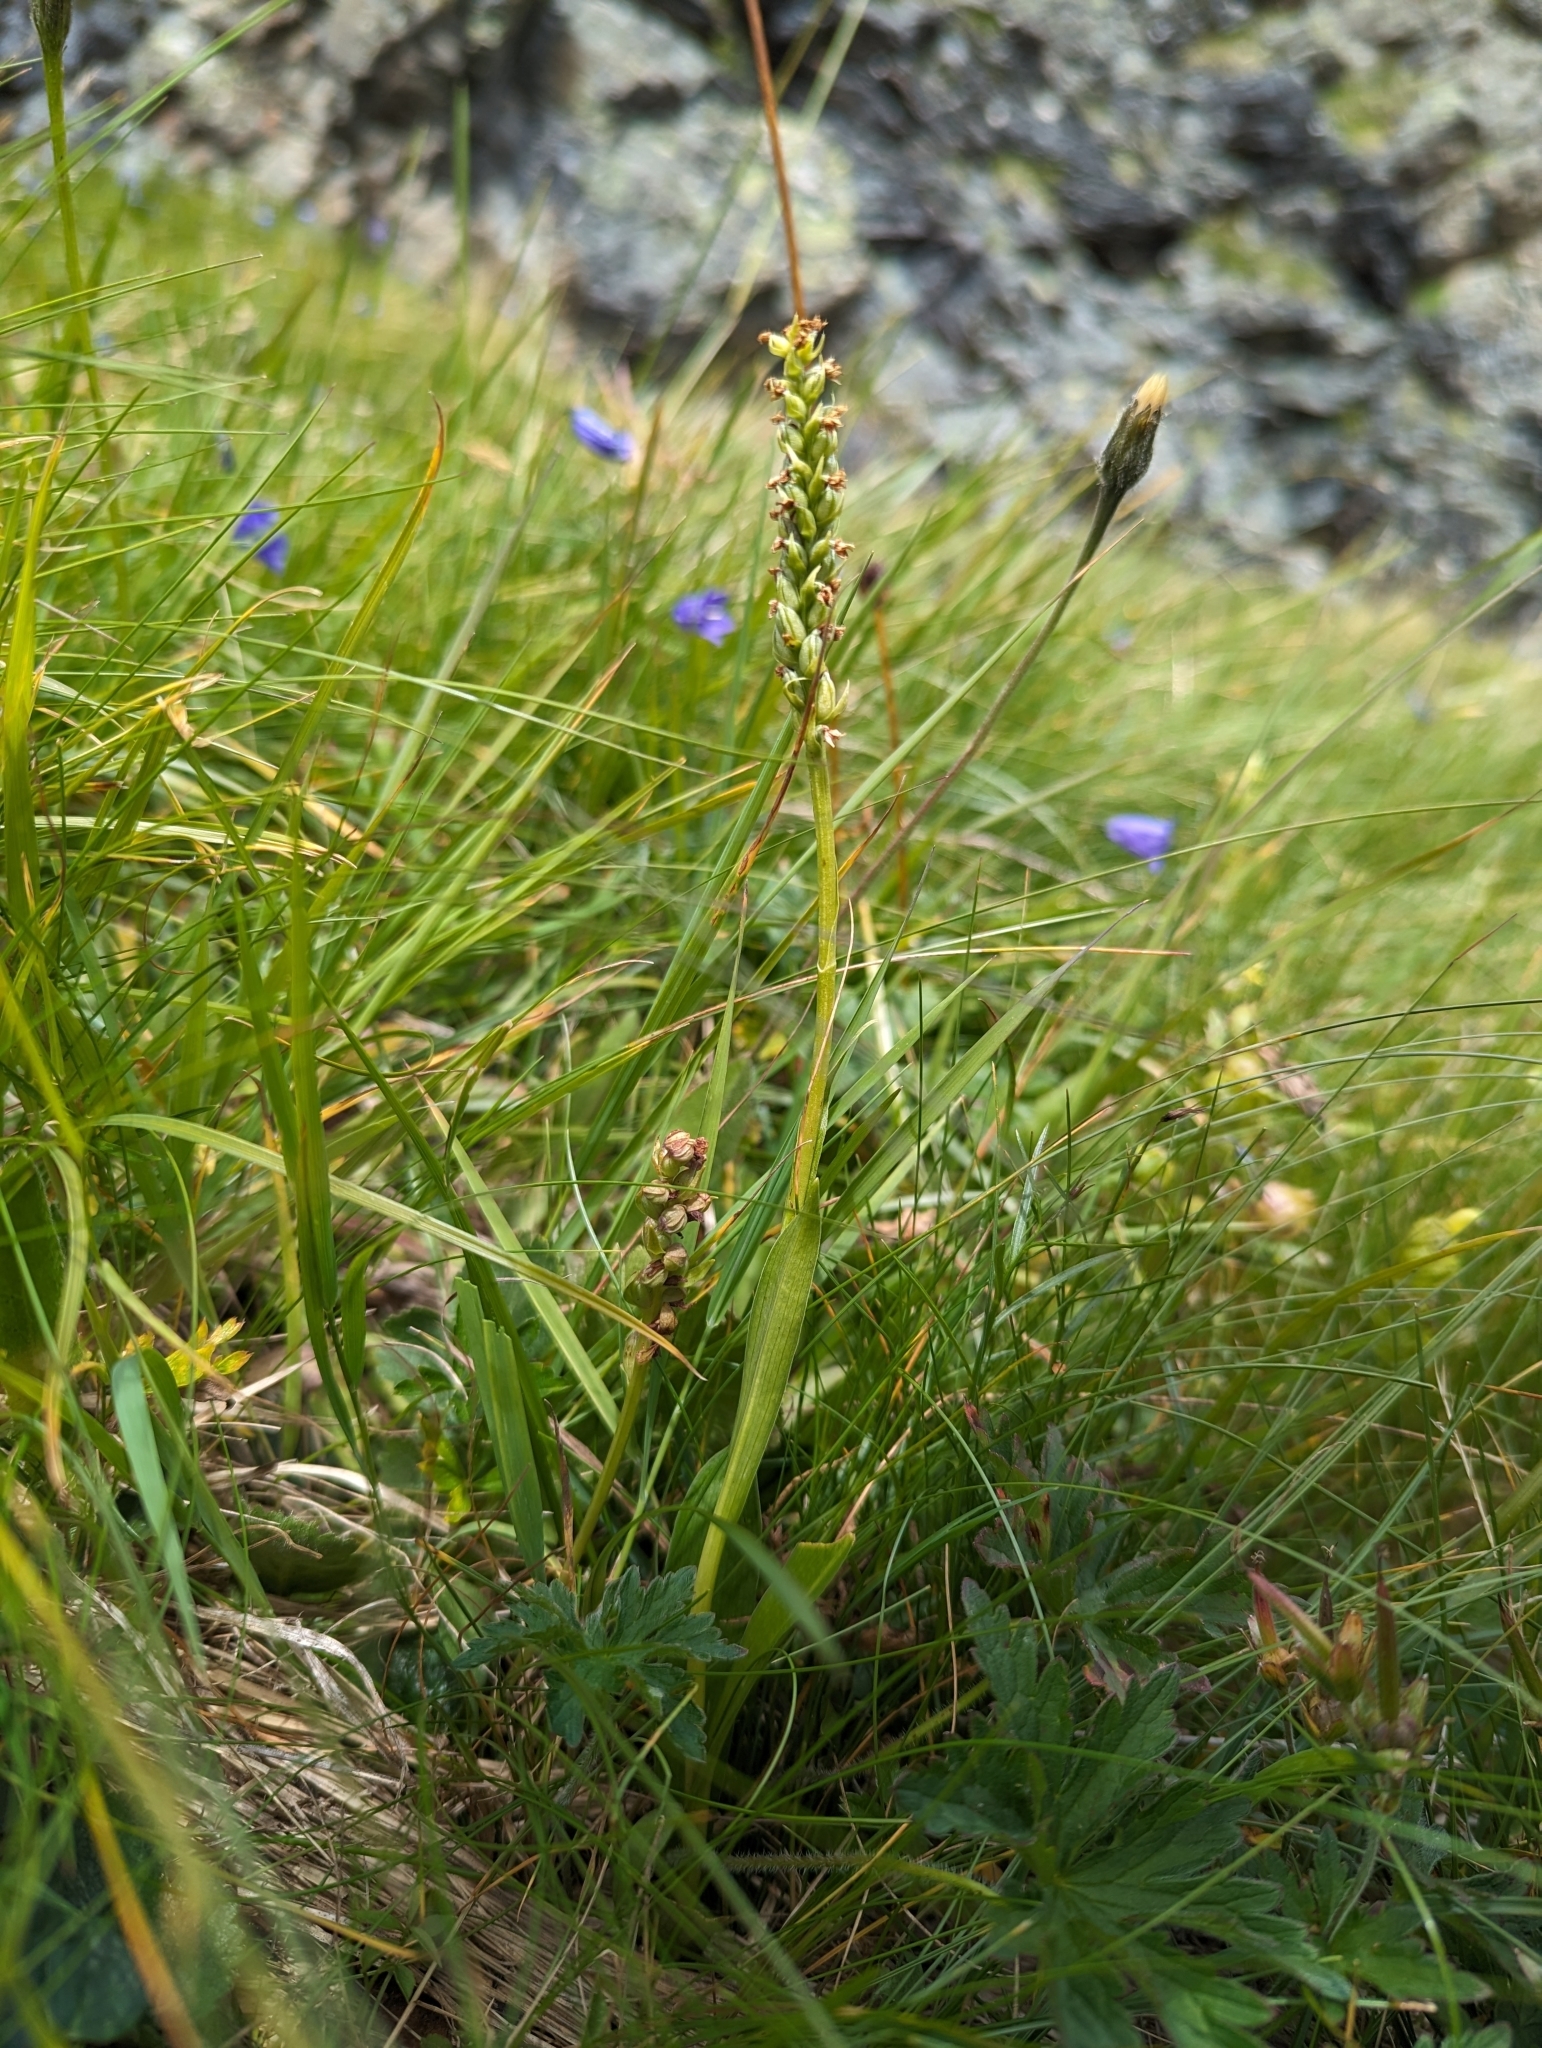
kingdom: Plantae
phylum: Tracheophyta
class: Liliopsida
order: Asparagales
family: Orchidaceae
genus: Pseudorchis
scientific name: Pseudorchis albida
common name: Small-white orchid
